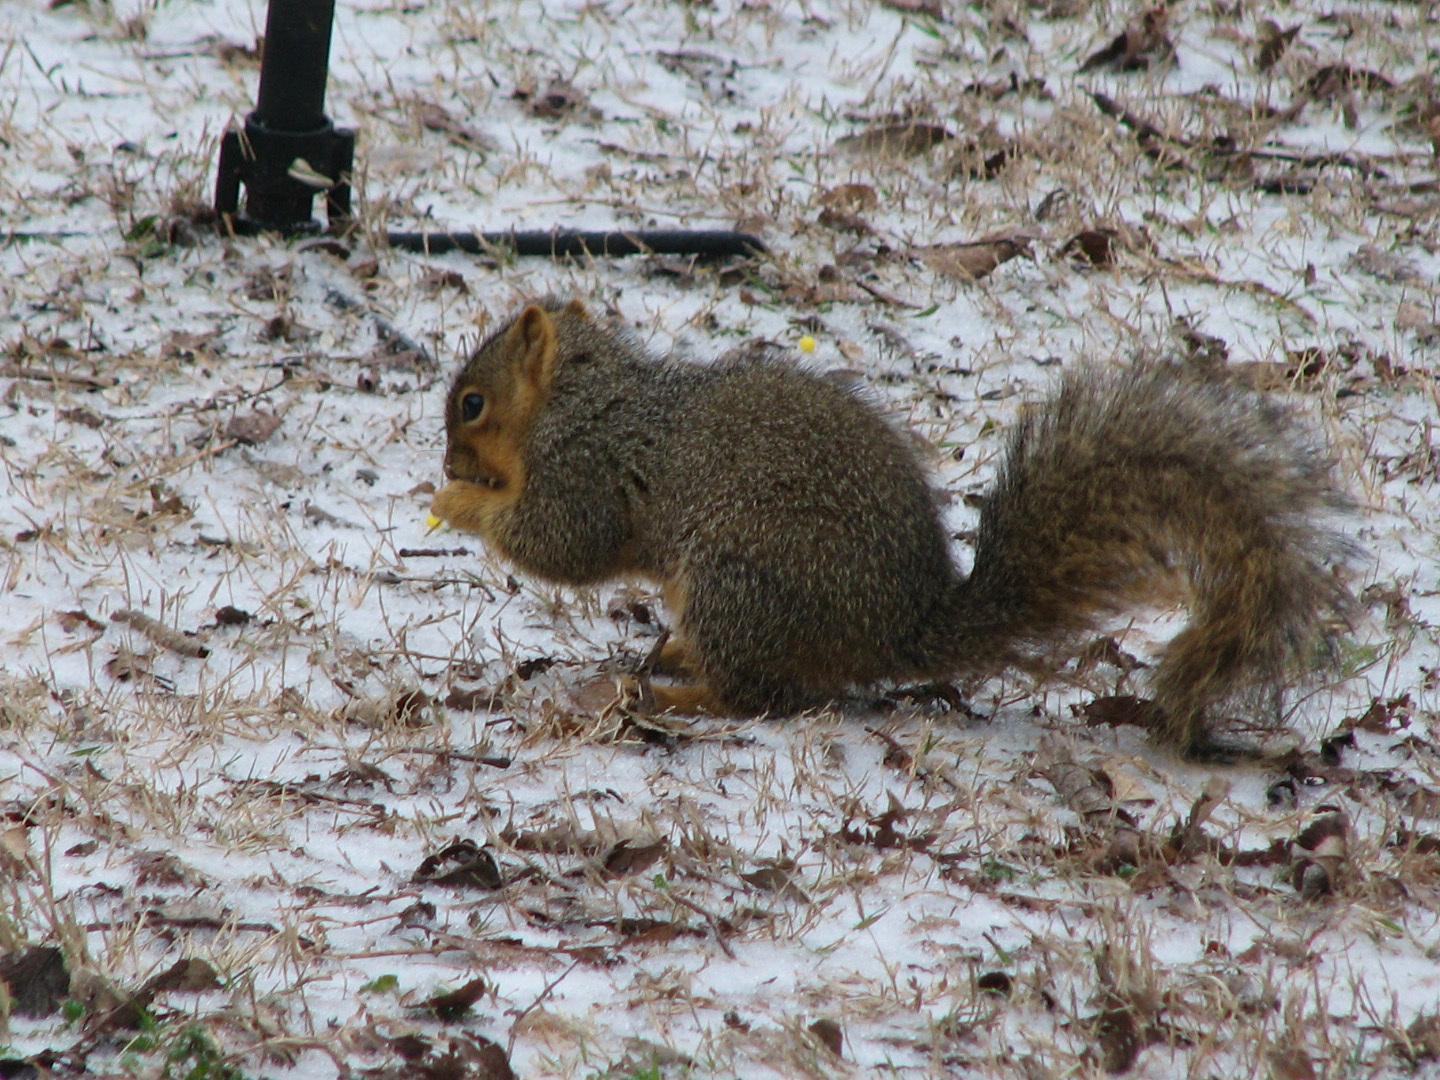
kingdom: Animalia
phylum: Chordata
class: Mammalia
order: Rodentia
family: Sciuridae
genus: Sciurus
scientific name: Sciurus niger
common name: Fox squirrel
